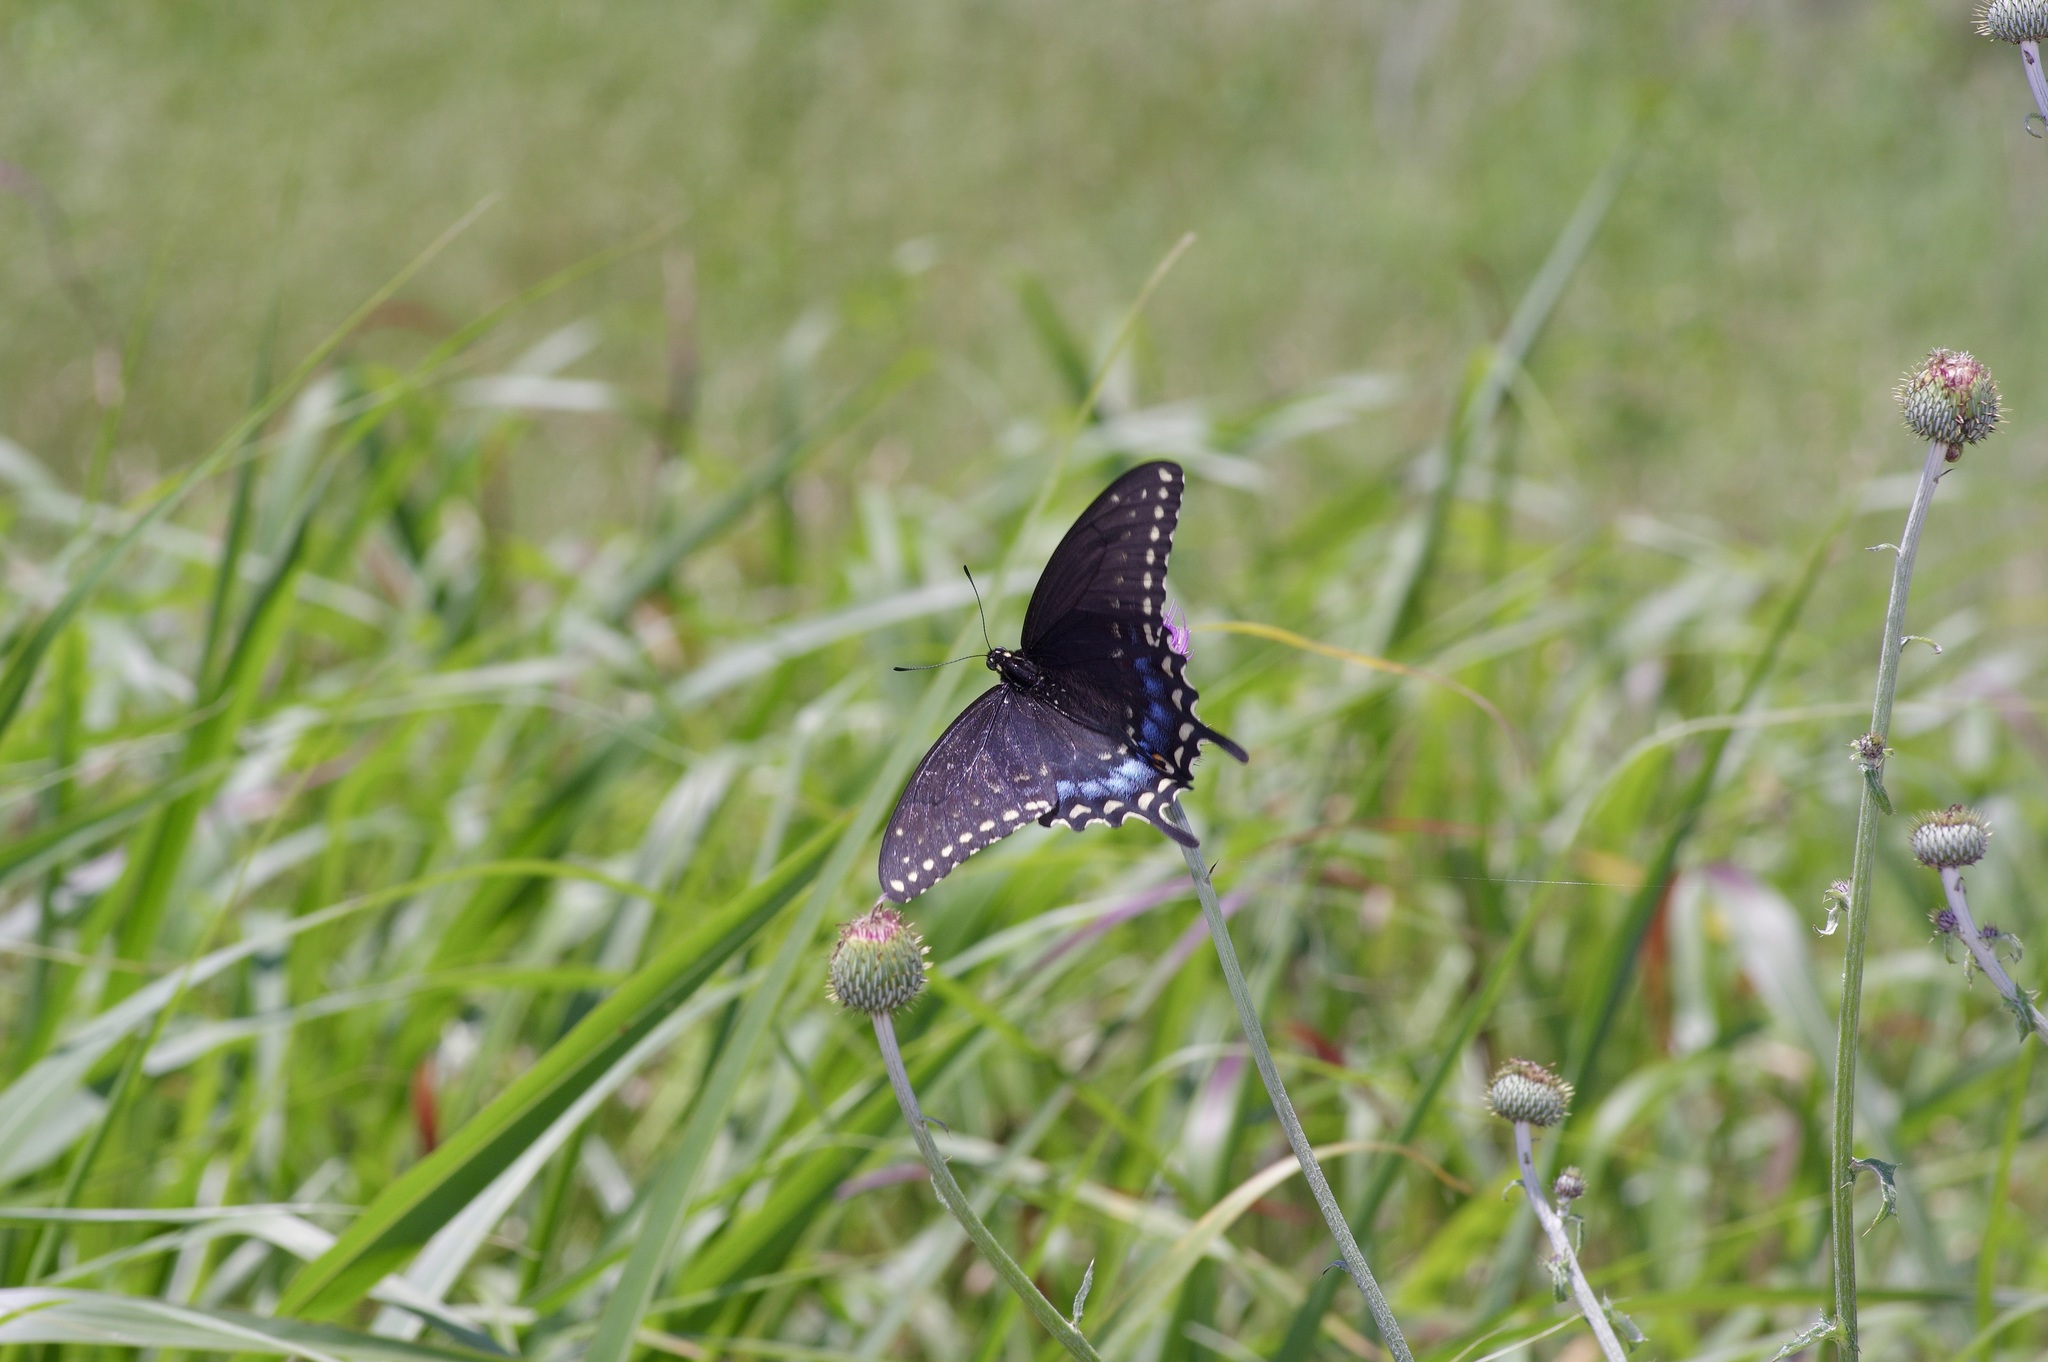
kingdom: Animalia
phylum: Arthropoda
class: Insecta
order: Lepidoptera
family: Papilionidae
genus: Papilio
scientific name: Papilio polyxenes
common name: Black swallowtail
